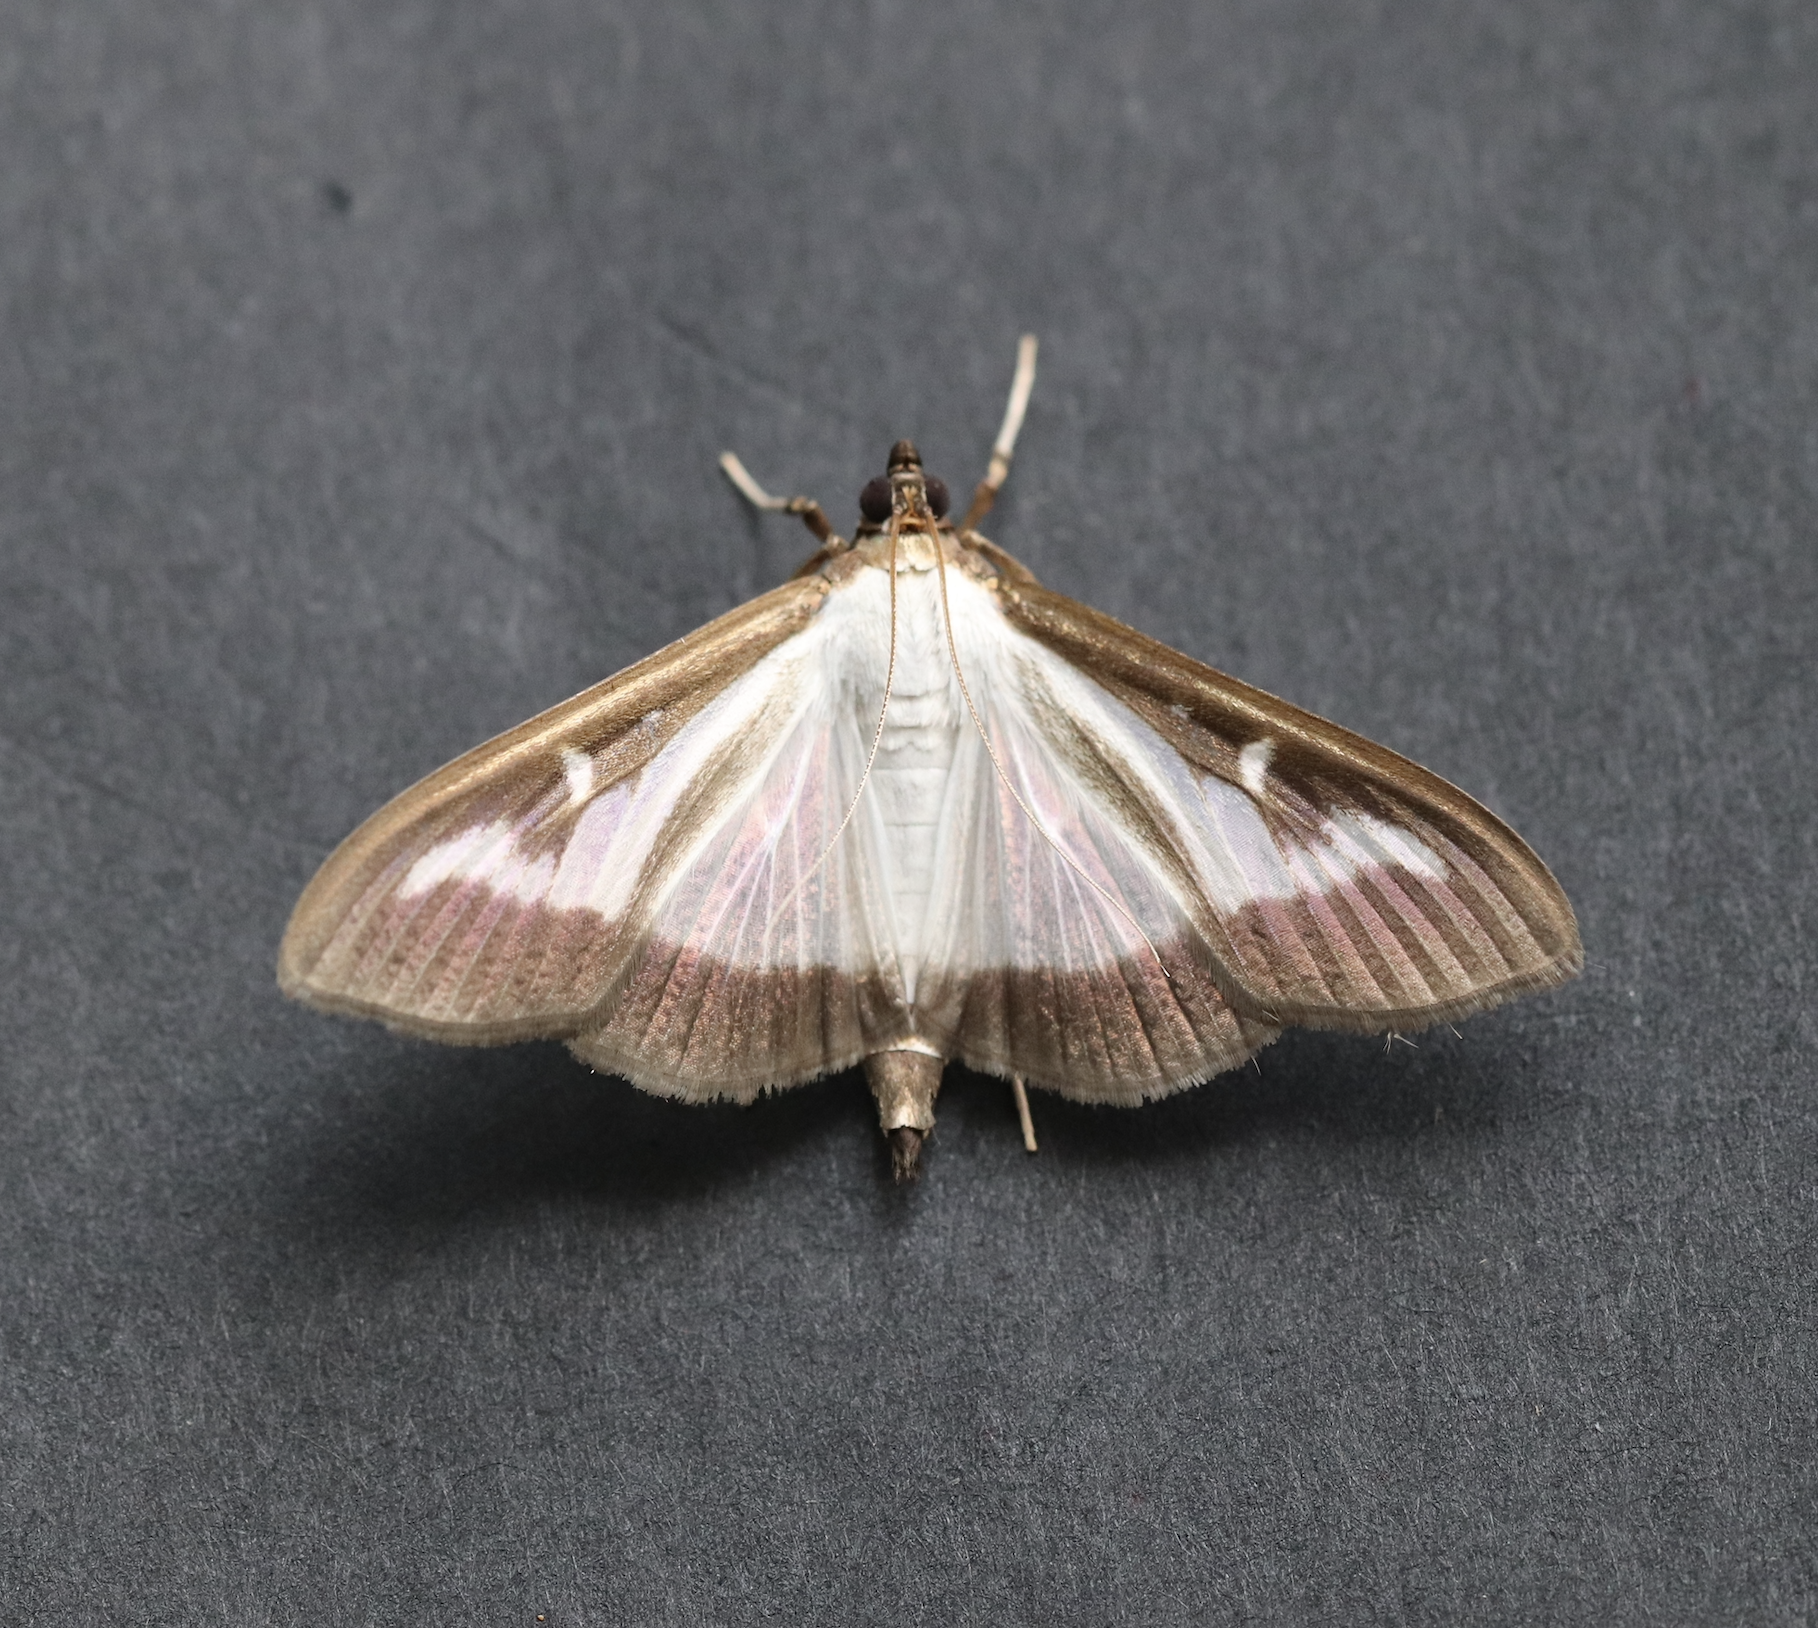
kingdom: Animalia
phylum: Arthropoda
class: Insecta
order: Lepidoptera
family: Crambidae
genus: Cydalima
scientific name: Cydalima perspectalis
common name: Box tree moth
